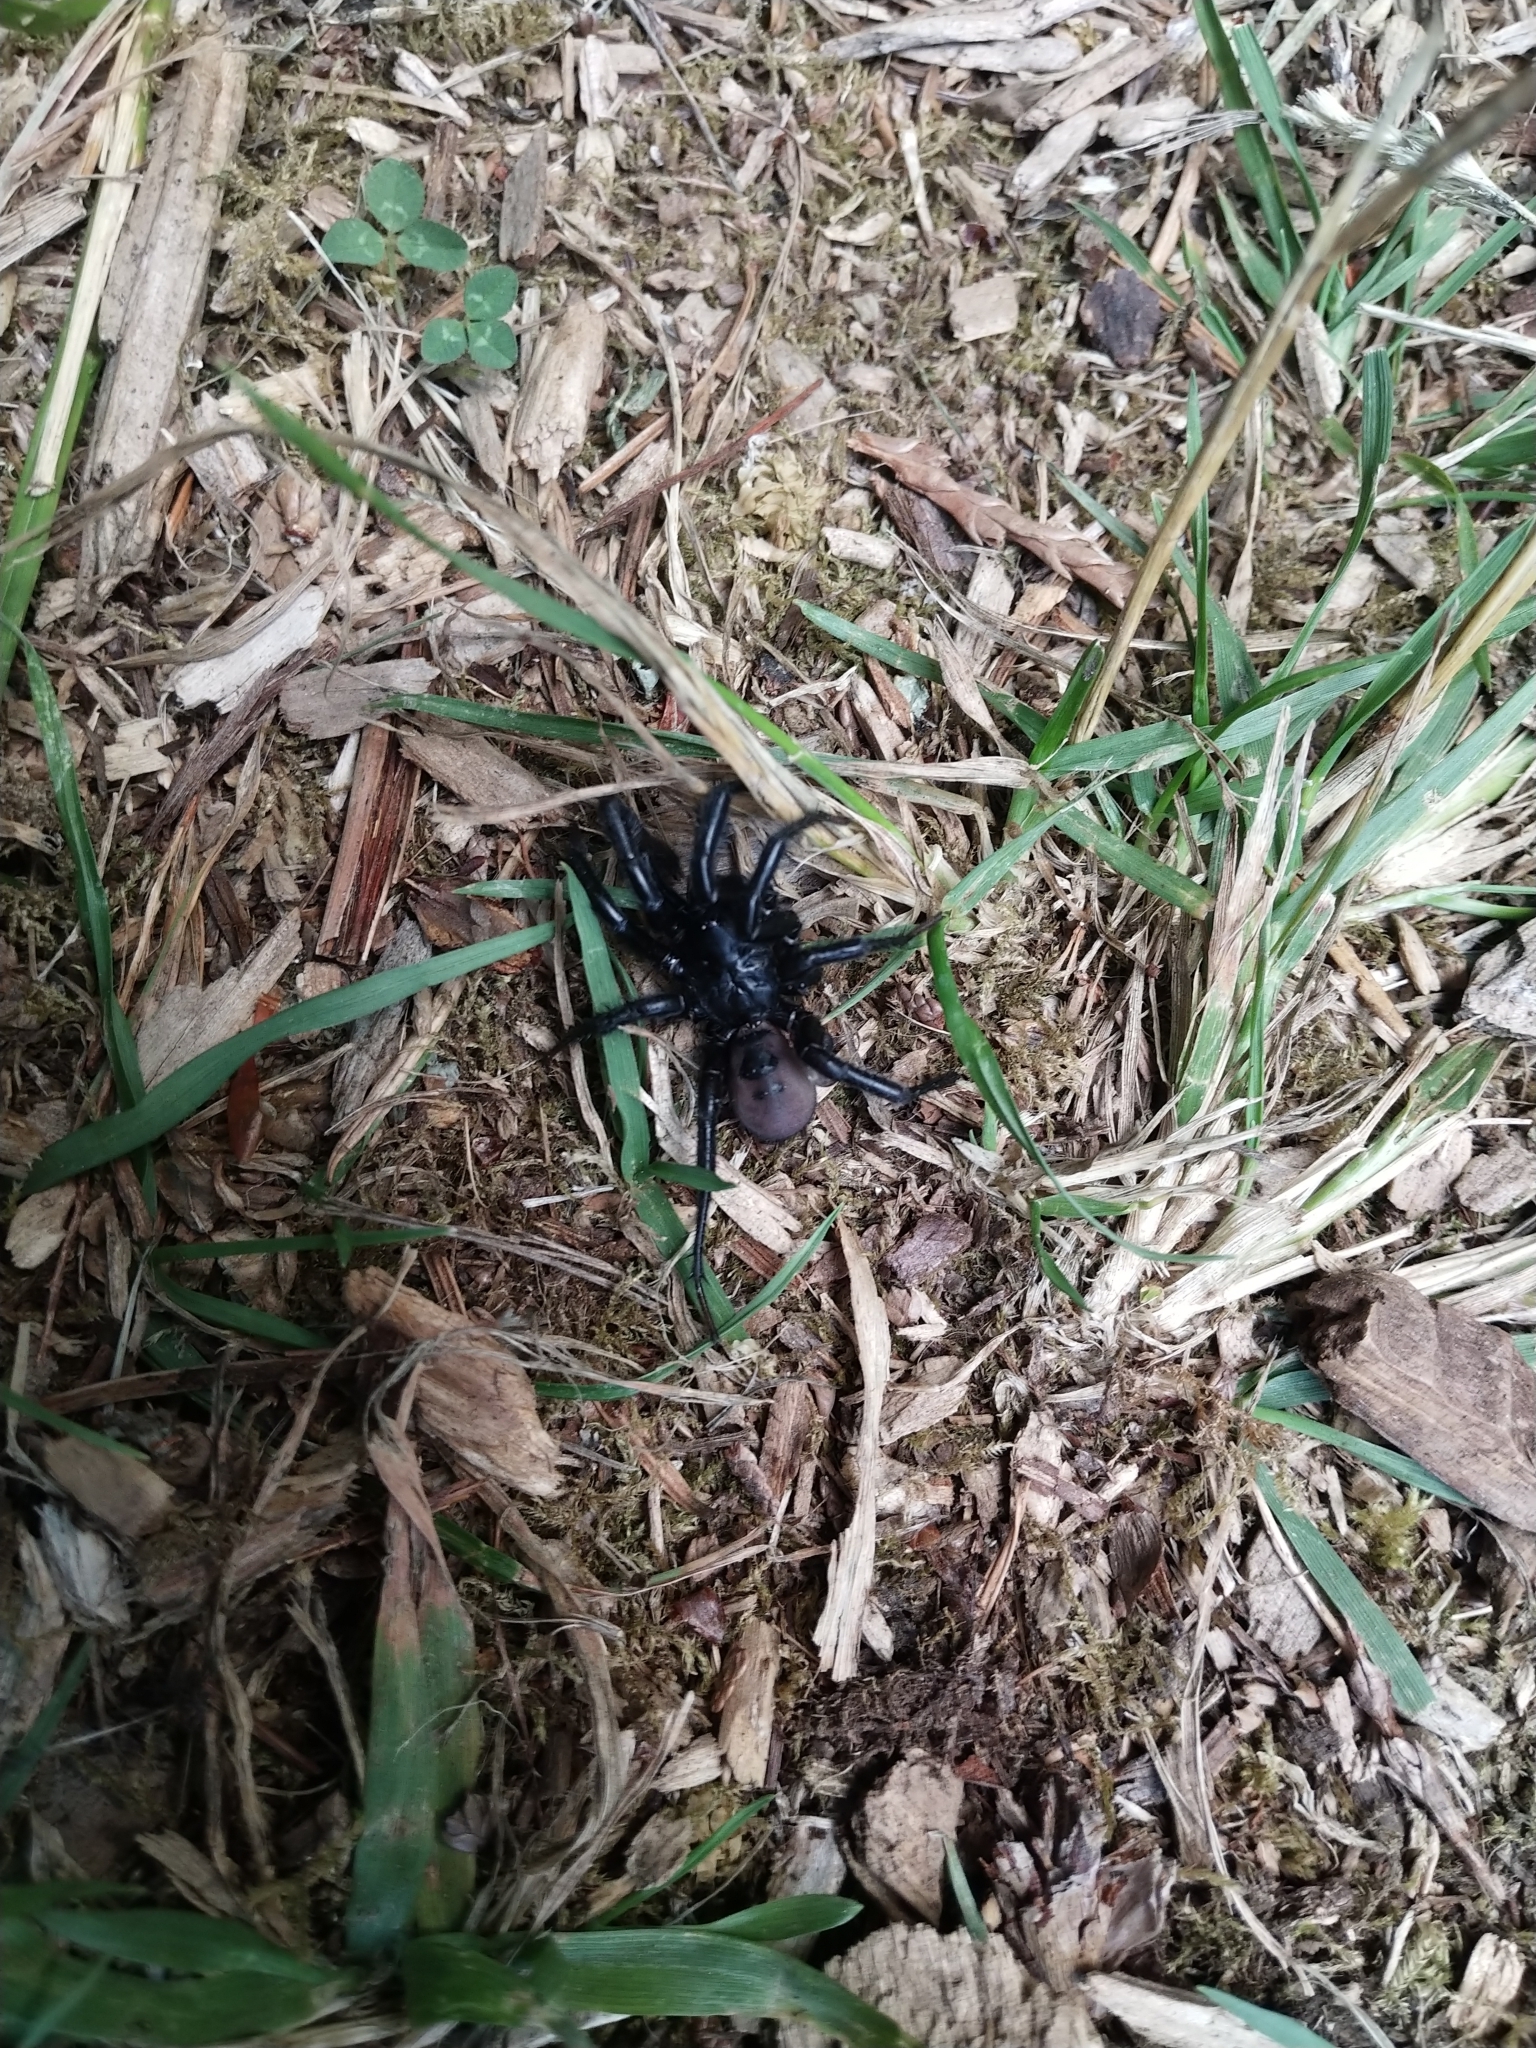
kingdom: Animalia
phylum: Arthropoda
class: Arachnida
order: Araneae
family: Antrodiaetidae
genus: Antrodiaetus
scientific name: Antrodiaetus pacificus
